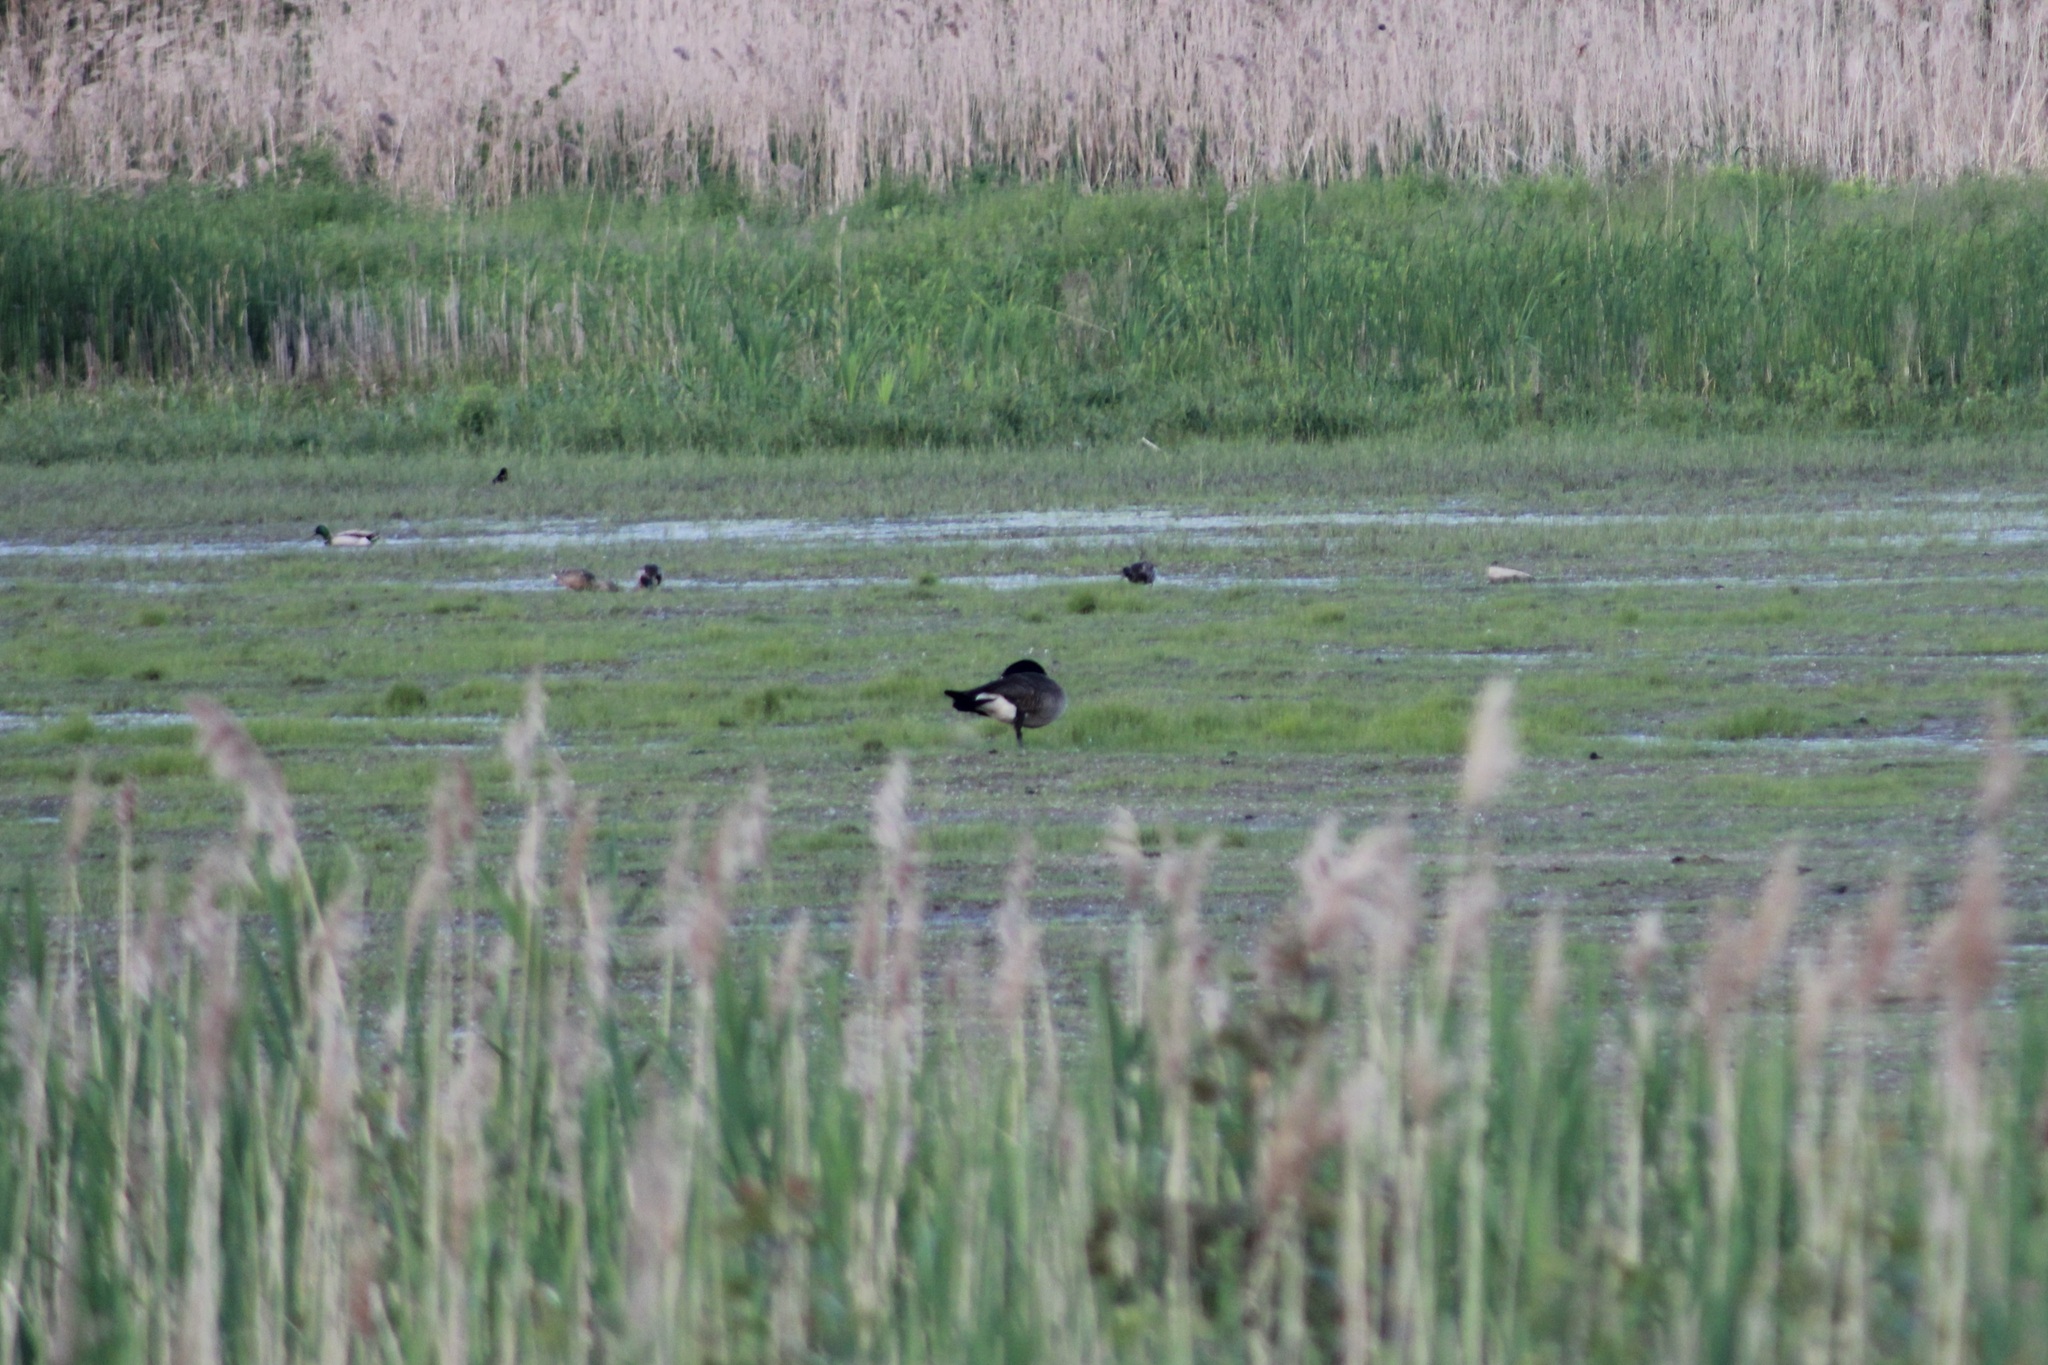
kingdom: Animalia
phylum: Chordata
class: Aves
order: Anseriformes
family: Anatidae
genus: Branta
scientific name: Branta canadensis
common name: Canada goose
